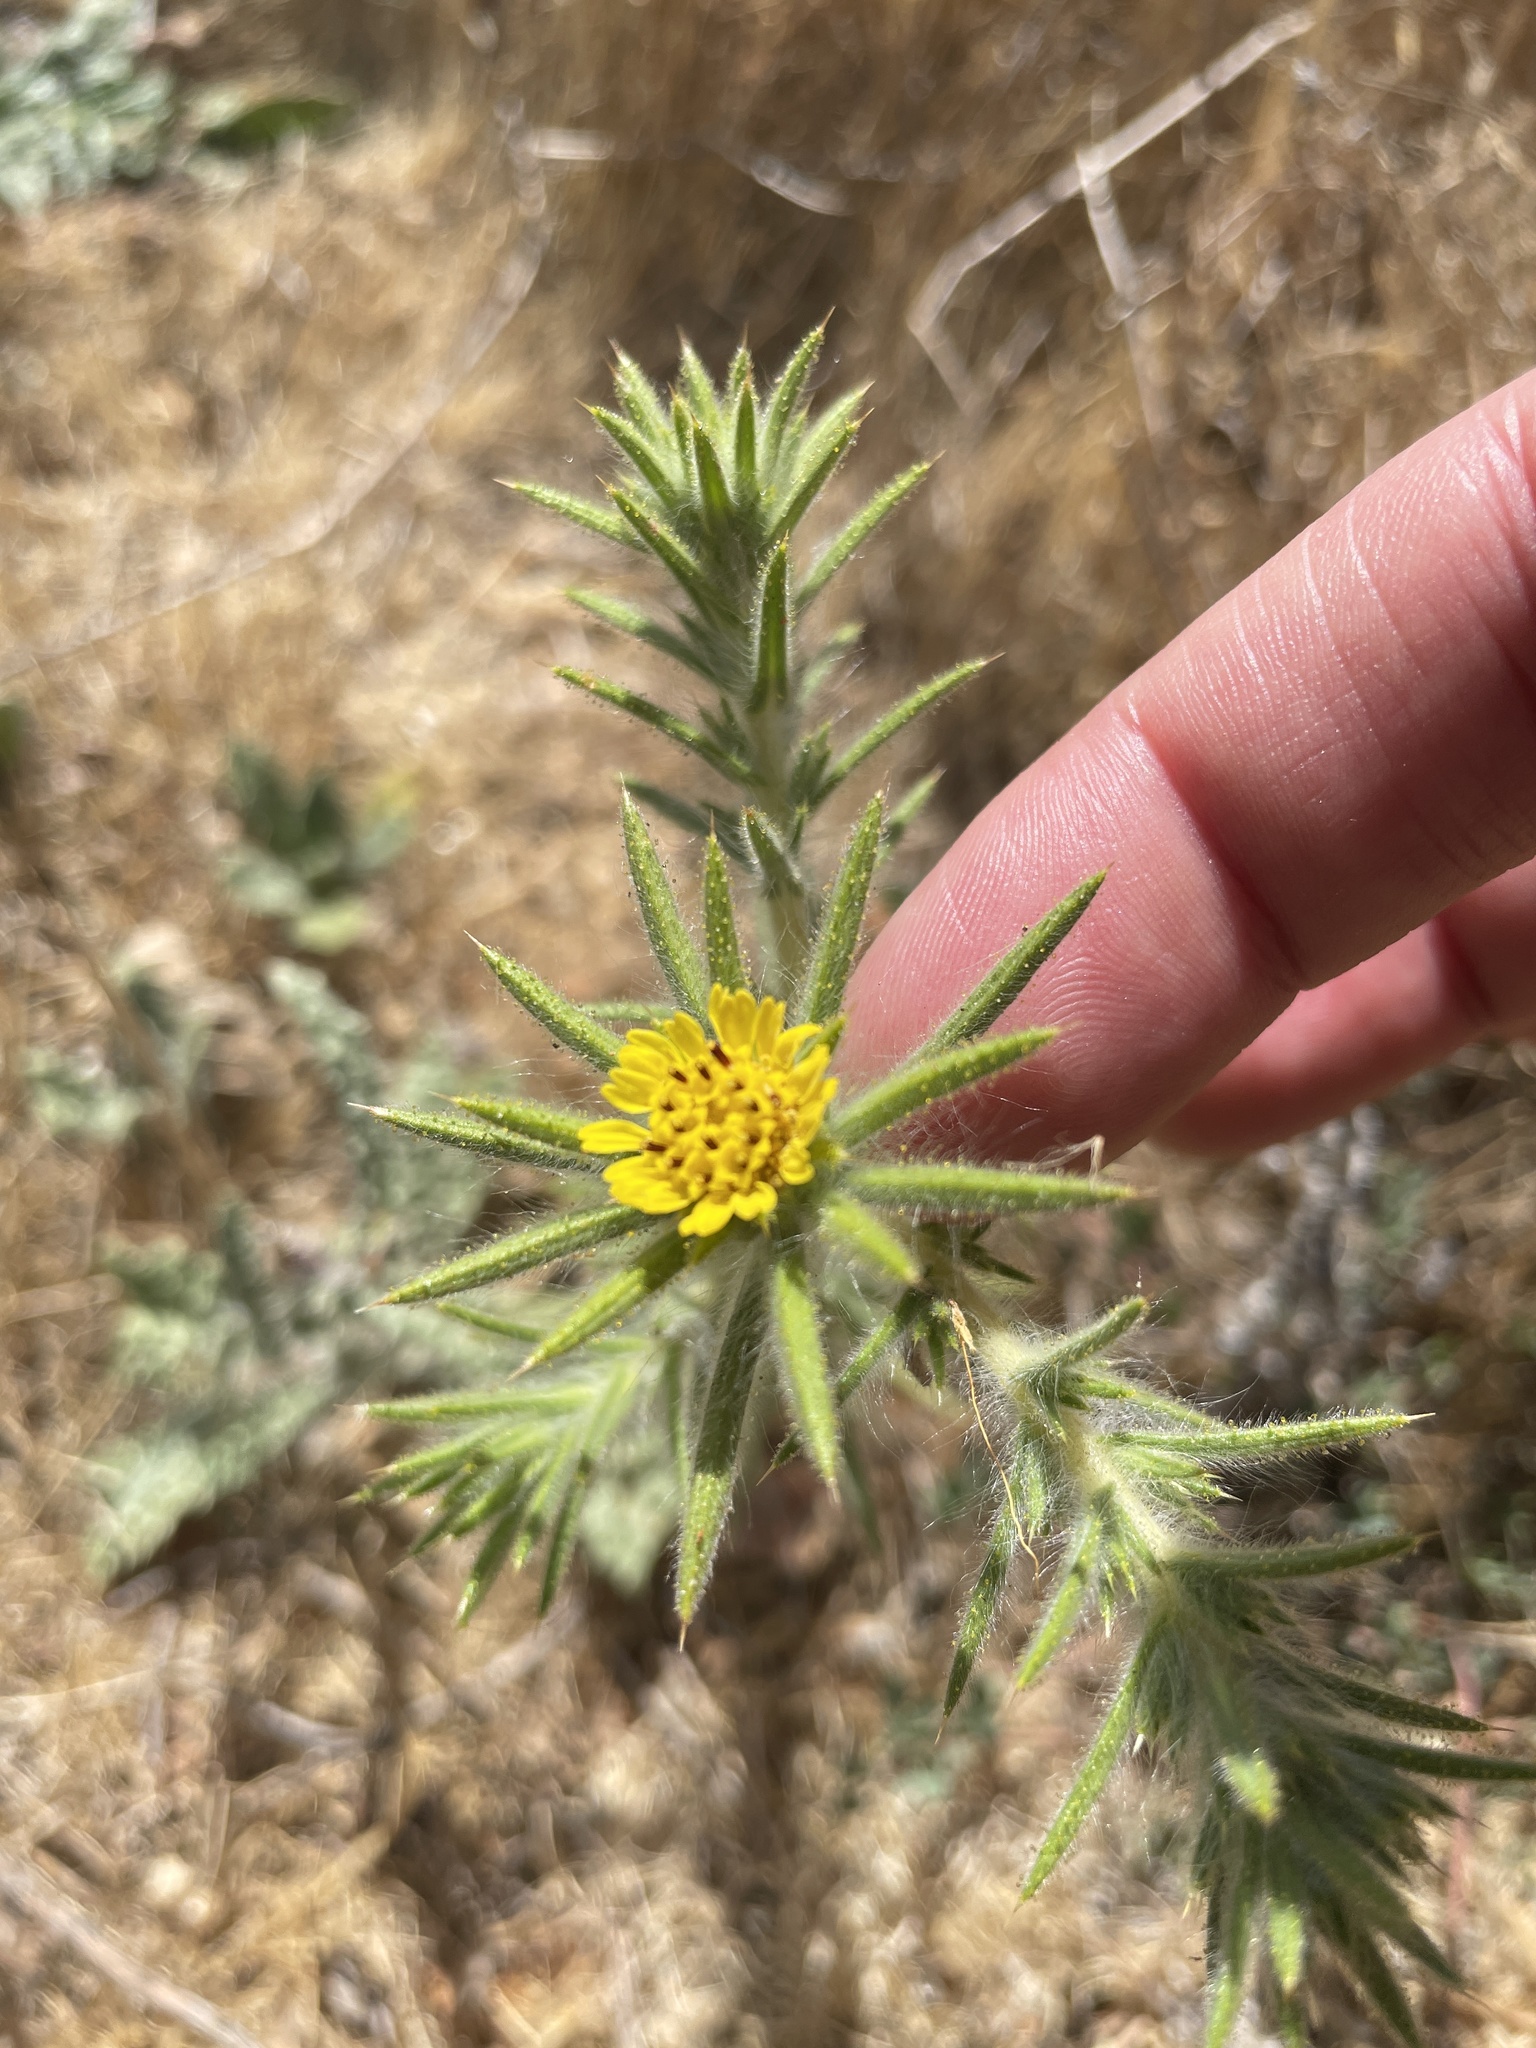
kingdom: Plantae
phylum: Tracheophyta
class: Magnoliopsida
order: Asterales
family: Asteraceae
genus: Centromadia
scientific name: Centromadia fitchii
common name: Fitch's spikeweed
